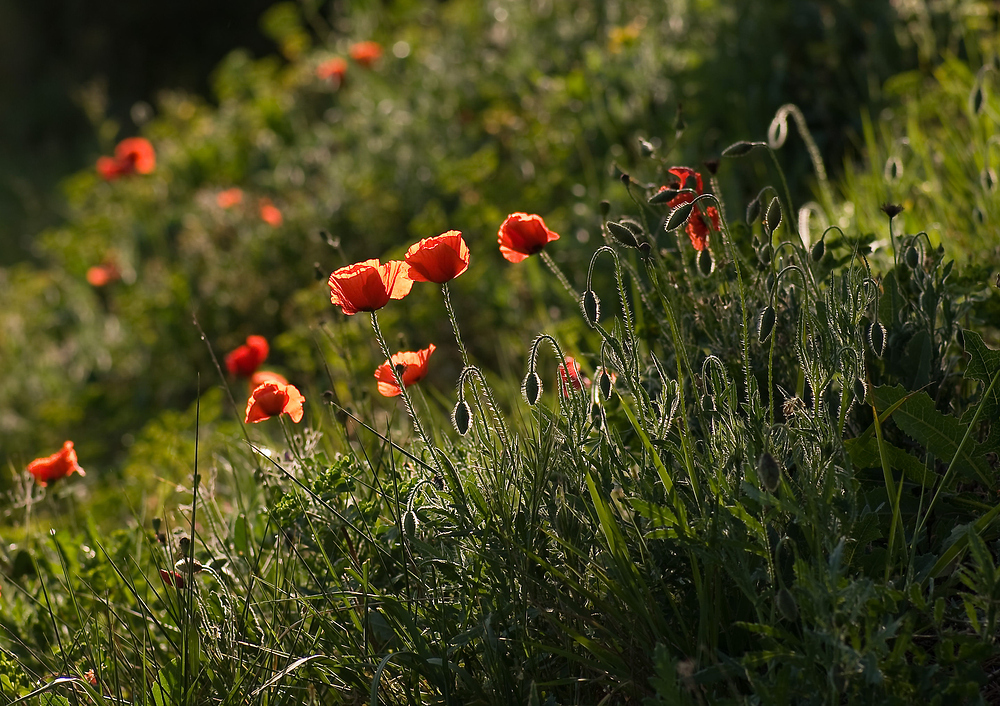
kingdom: Plantae
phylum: Tracheophyta
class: Magnoliopsida
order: Ranunculales
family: Papaveraceae
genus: Papaver
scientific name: Papaver rhoeas
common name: Corn poppy
